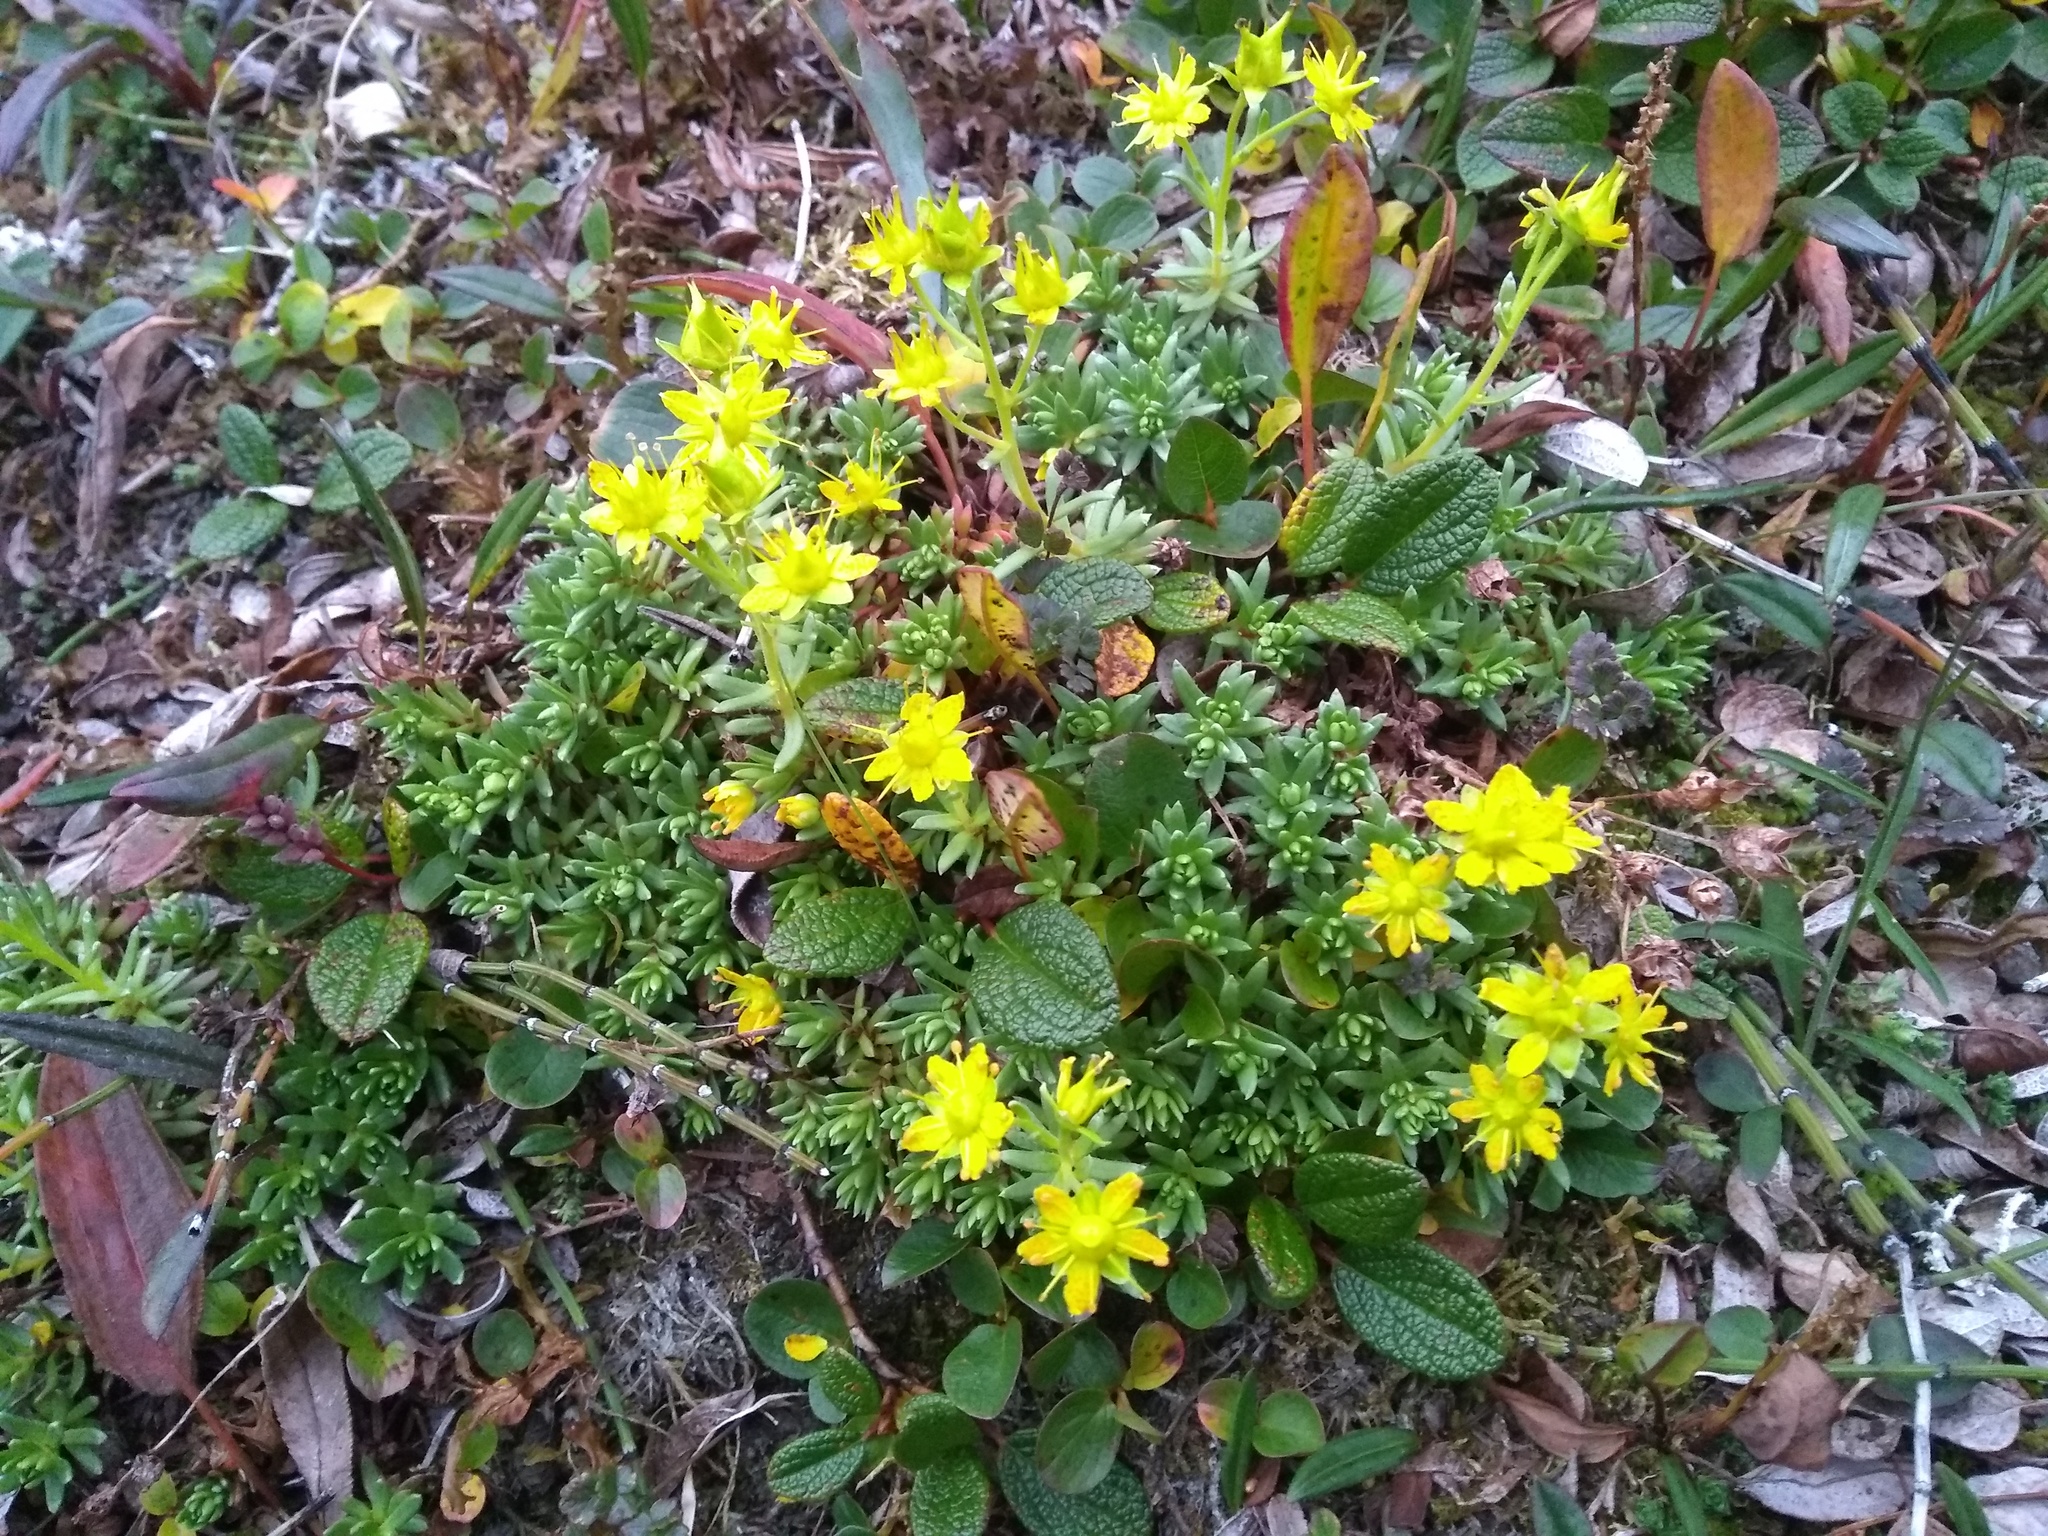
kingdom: Plantae
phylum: Tracheophyta
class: Magnoliopsida
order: Saxifragales
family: Saxifragaceae
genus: Saxifraga
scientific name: Saxifraga aizoides
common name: Yellow mountain saxifrage
